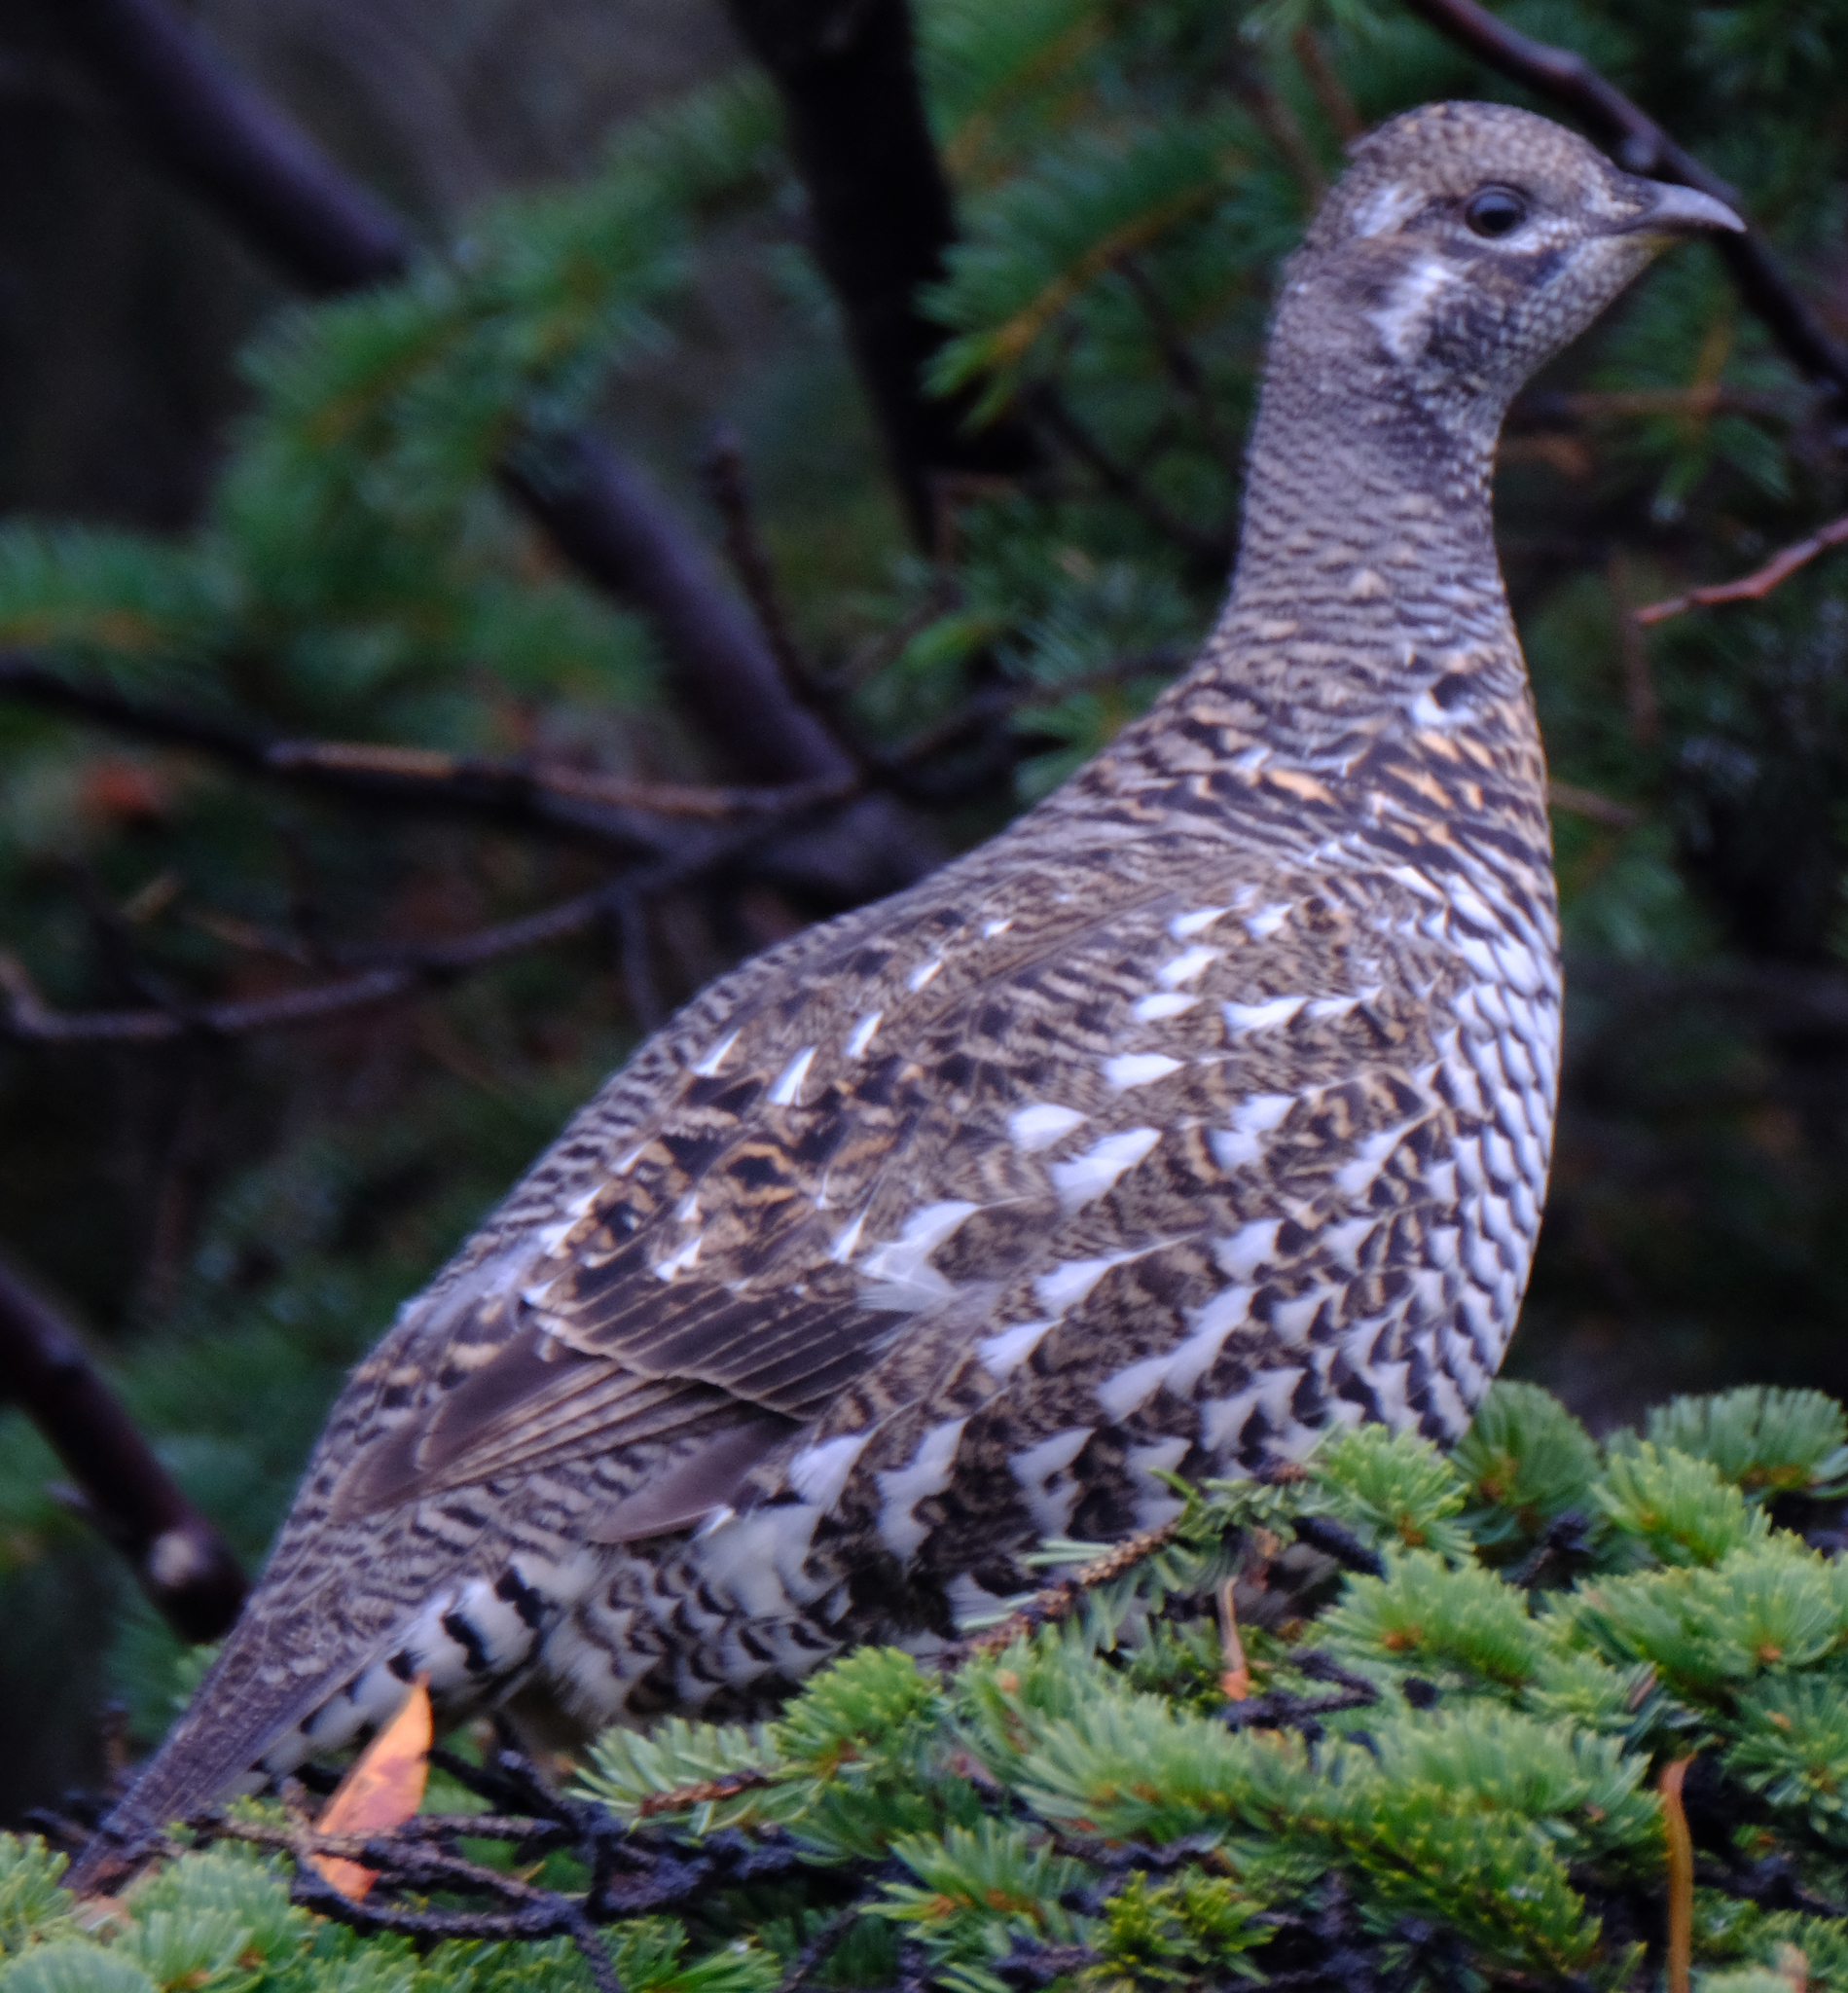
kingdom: Animalia
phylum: Chordata
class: Aves
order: Galliformes
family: Phasianidae
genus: Canachites
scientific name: Canachites canadensis
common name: Spruce grouse
